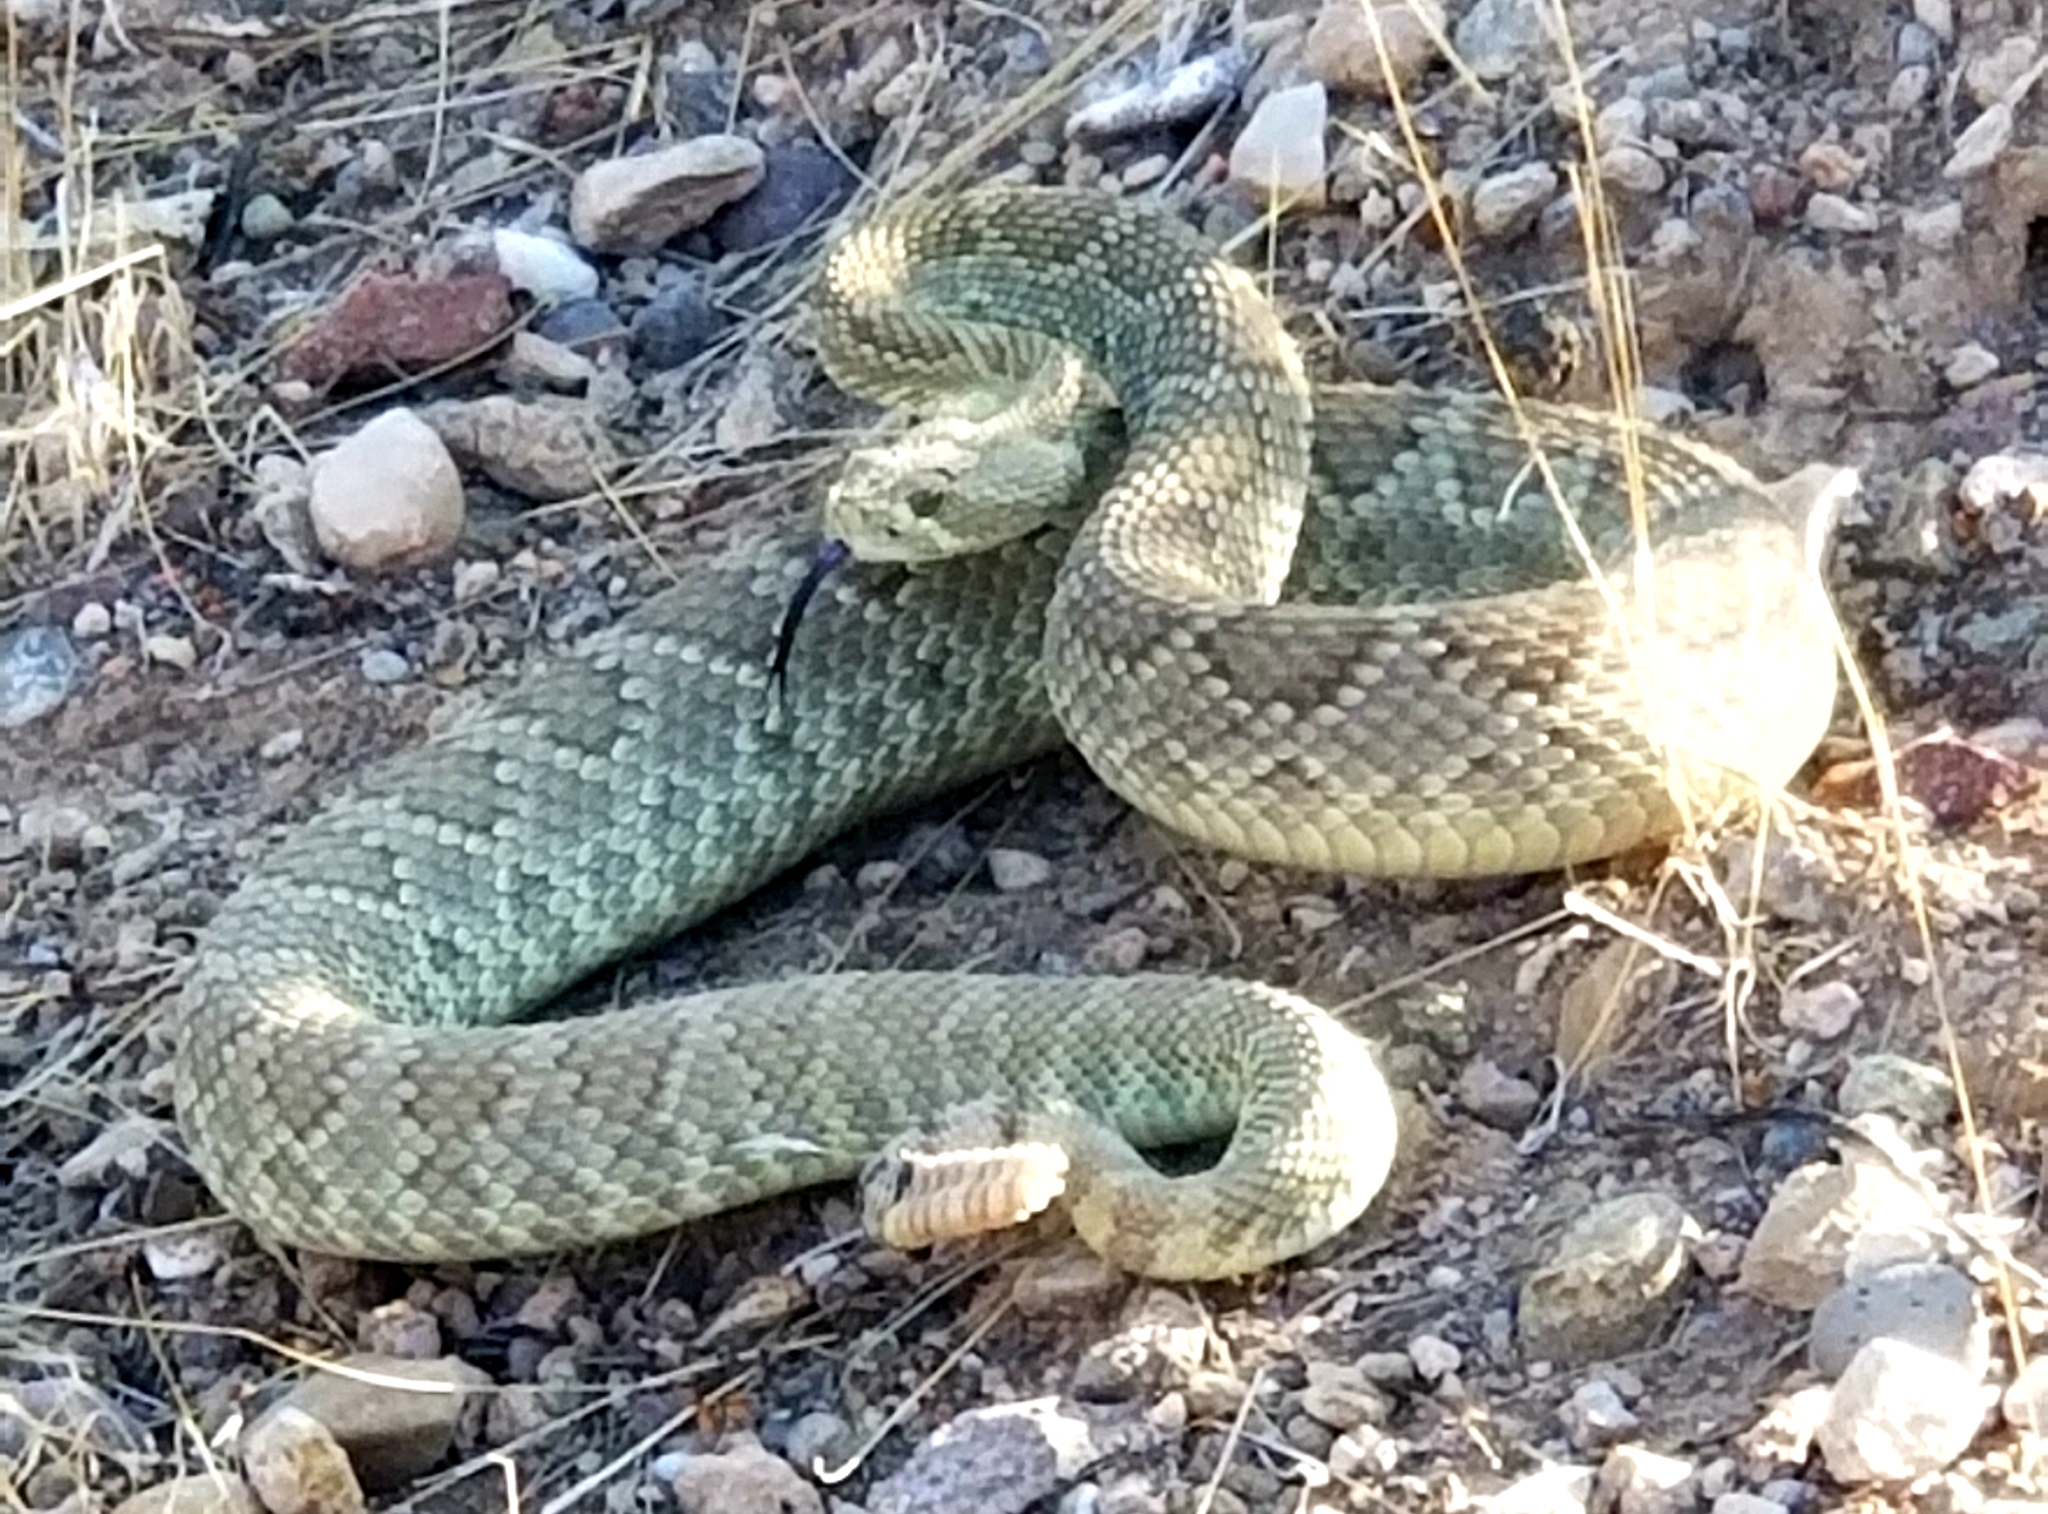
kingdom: Animalia
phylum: Chordata
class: Squamata
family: Viperidae
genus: Crotalus
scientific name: Crotalus scutulatus
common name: Scutulatus
